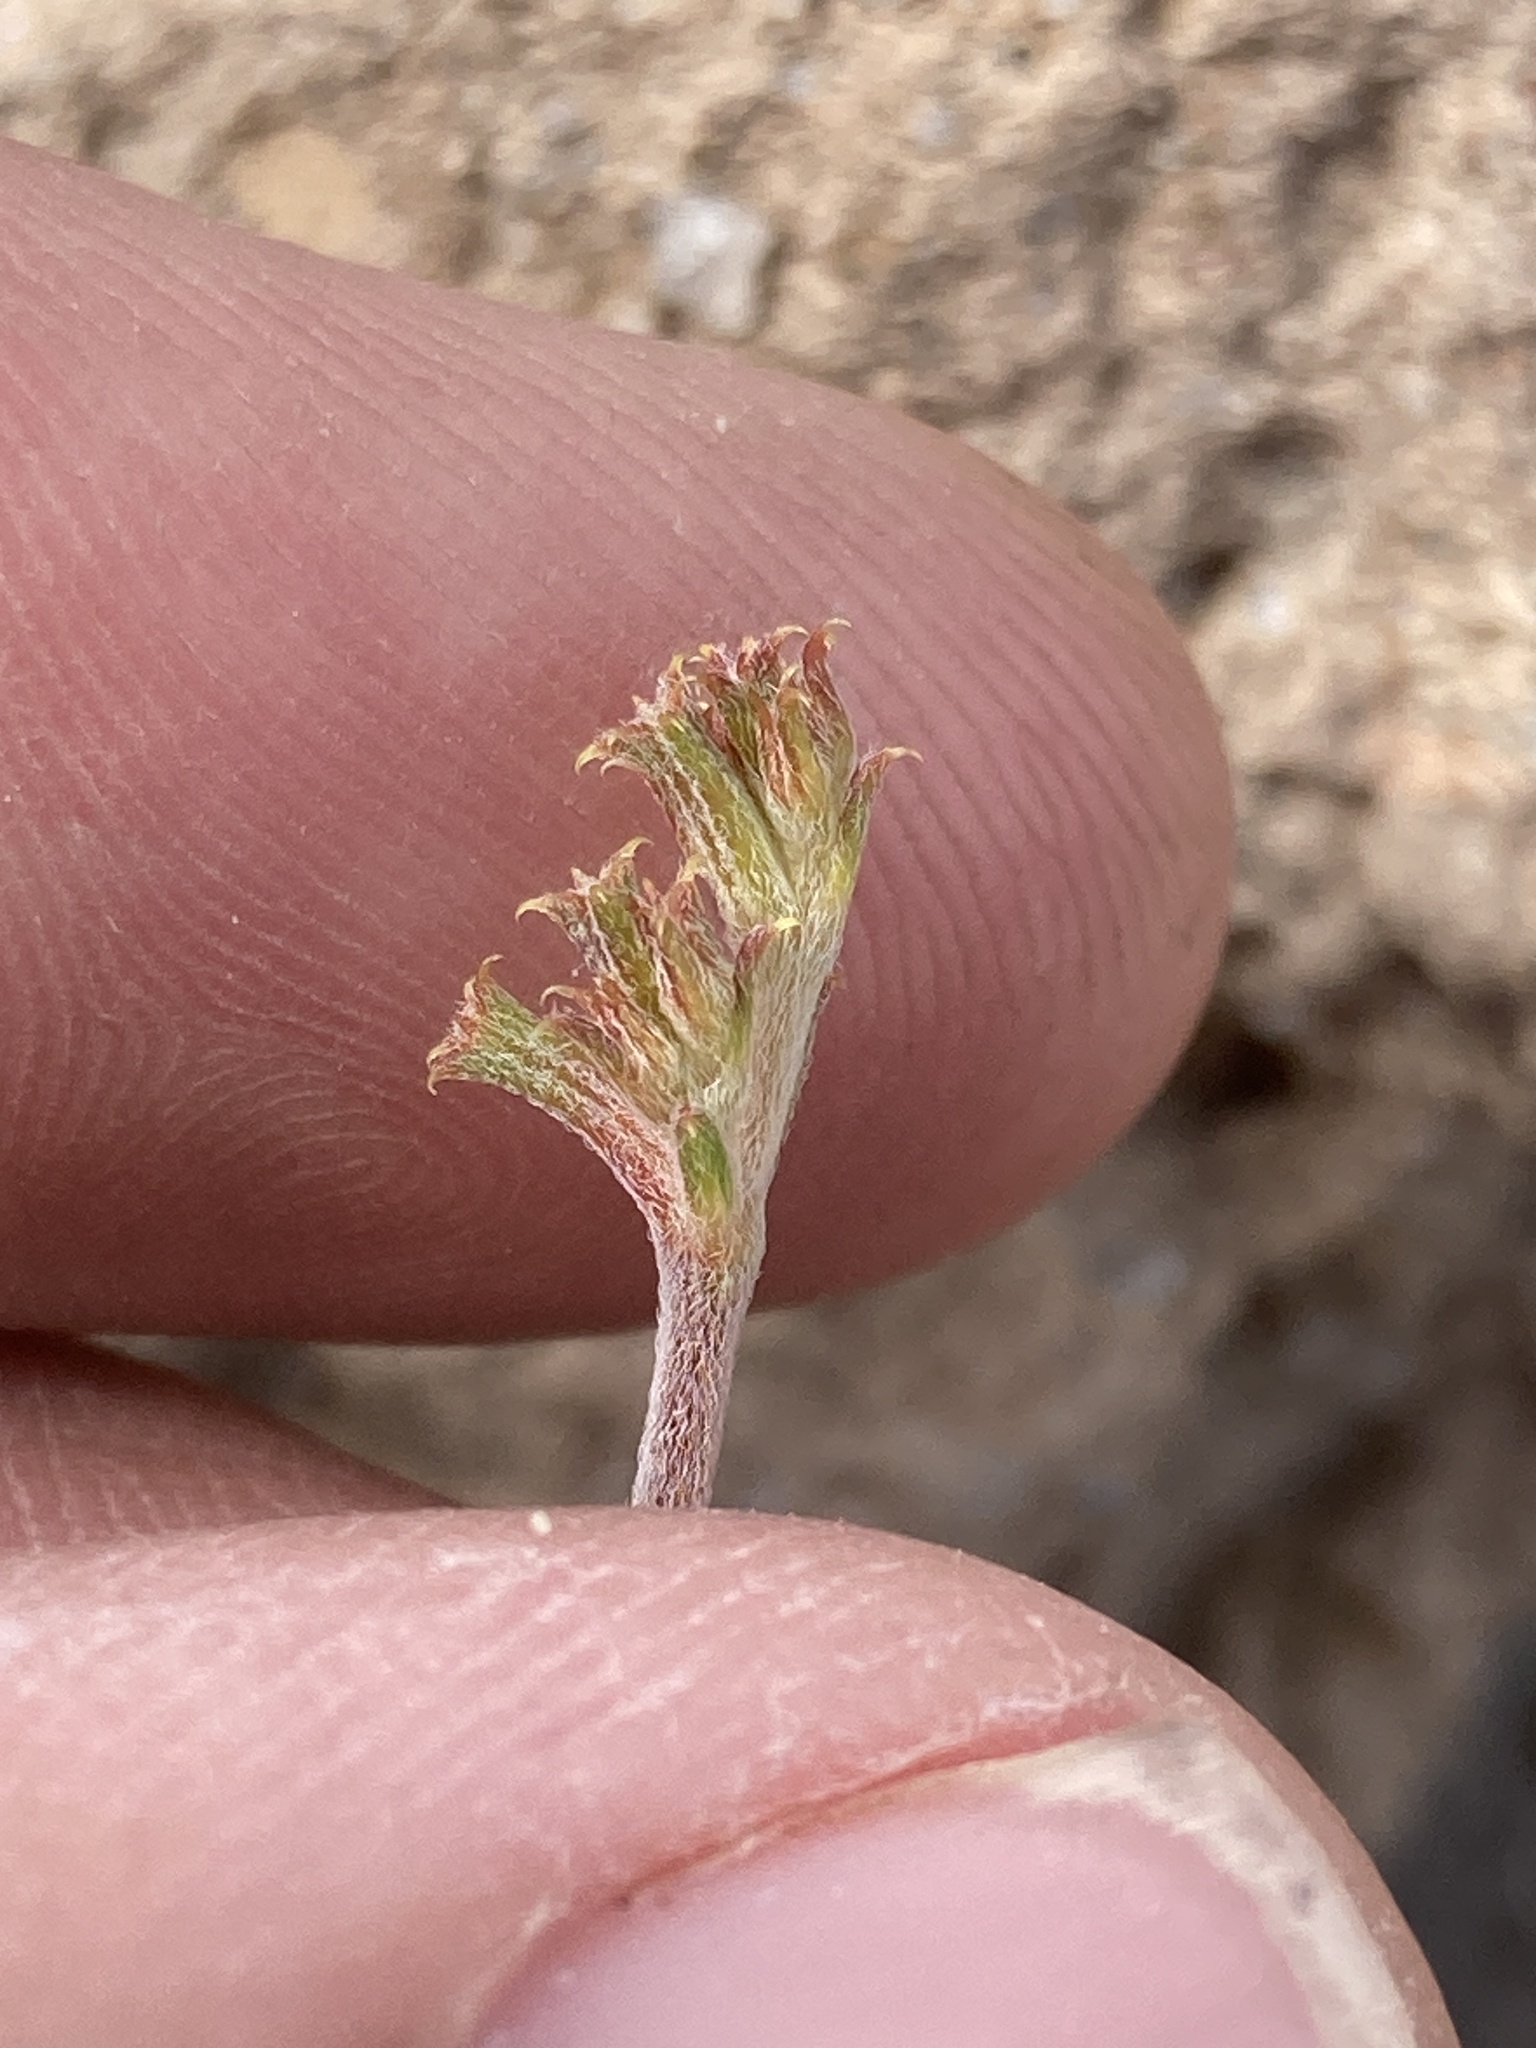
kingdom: Plantae
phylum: Tracheophyta
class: Magnoliopsida
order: Caryophyllales
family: Polygonaceae
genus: Chorizanthe
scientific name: Chorizanthe brevicornu
